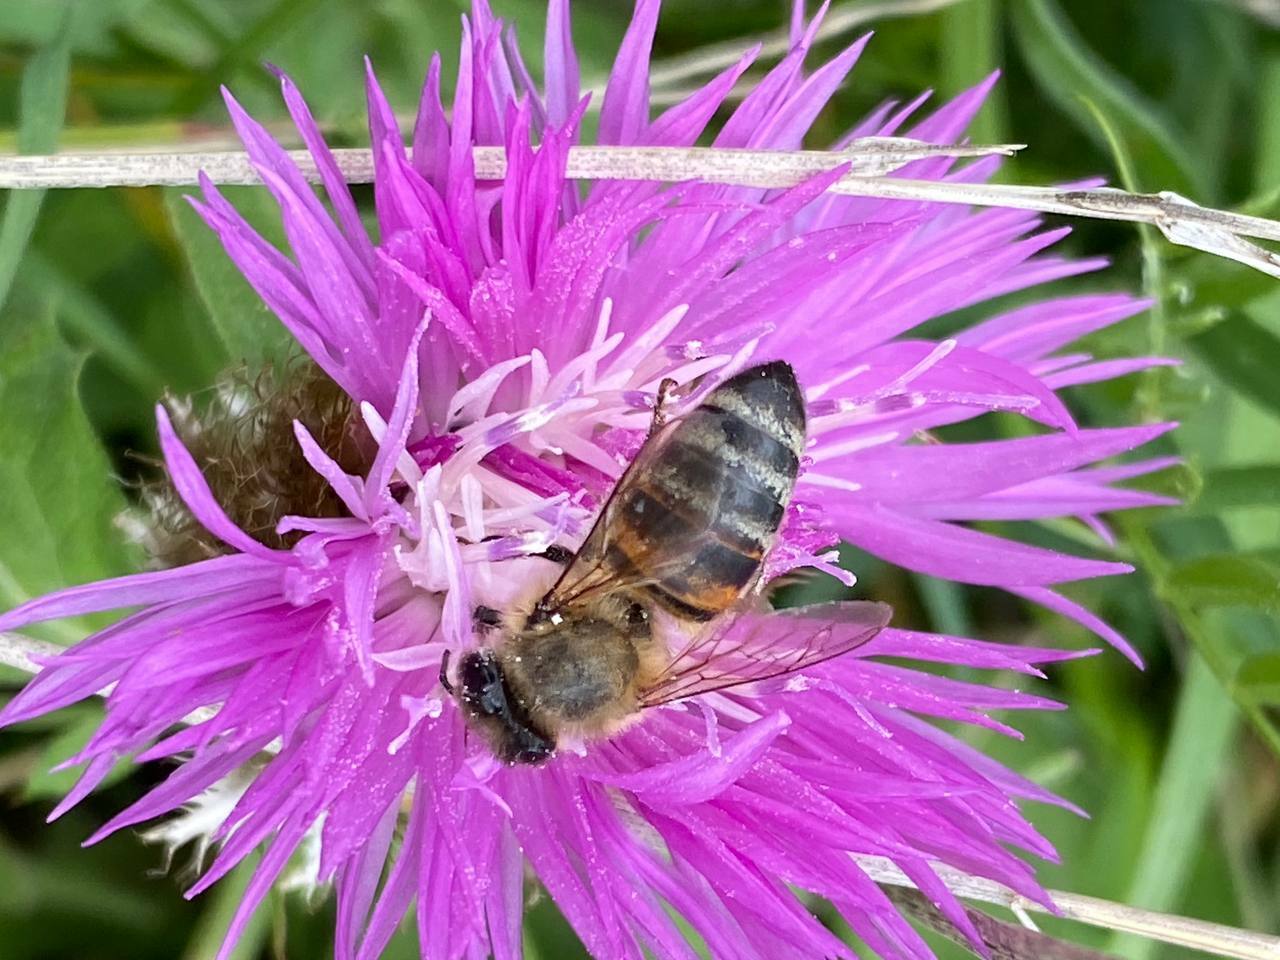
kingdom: Animalia
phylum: Arthropoda
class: Insecta
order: Hymenoptera
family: Apidae
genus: Apis
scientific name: Apis mellifera
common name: Honey bee
